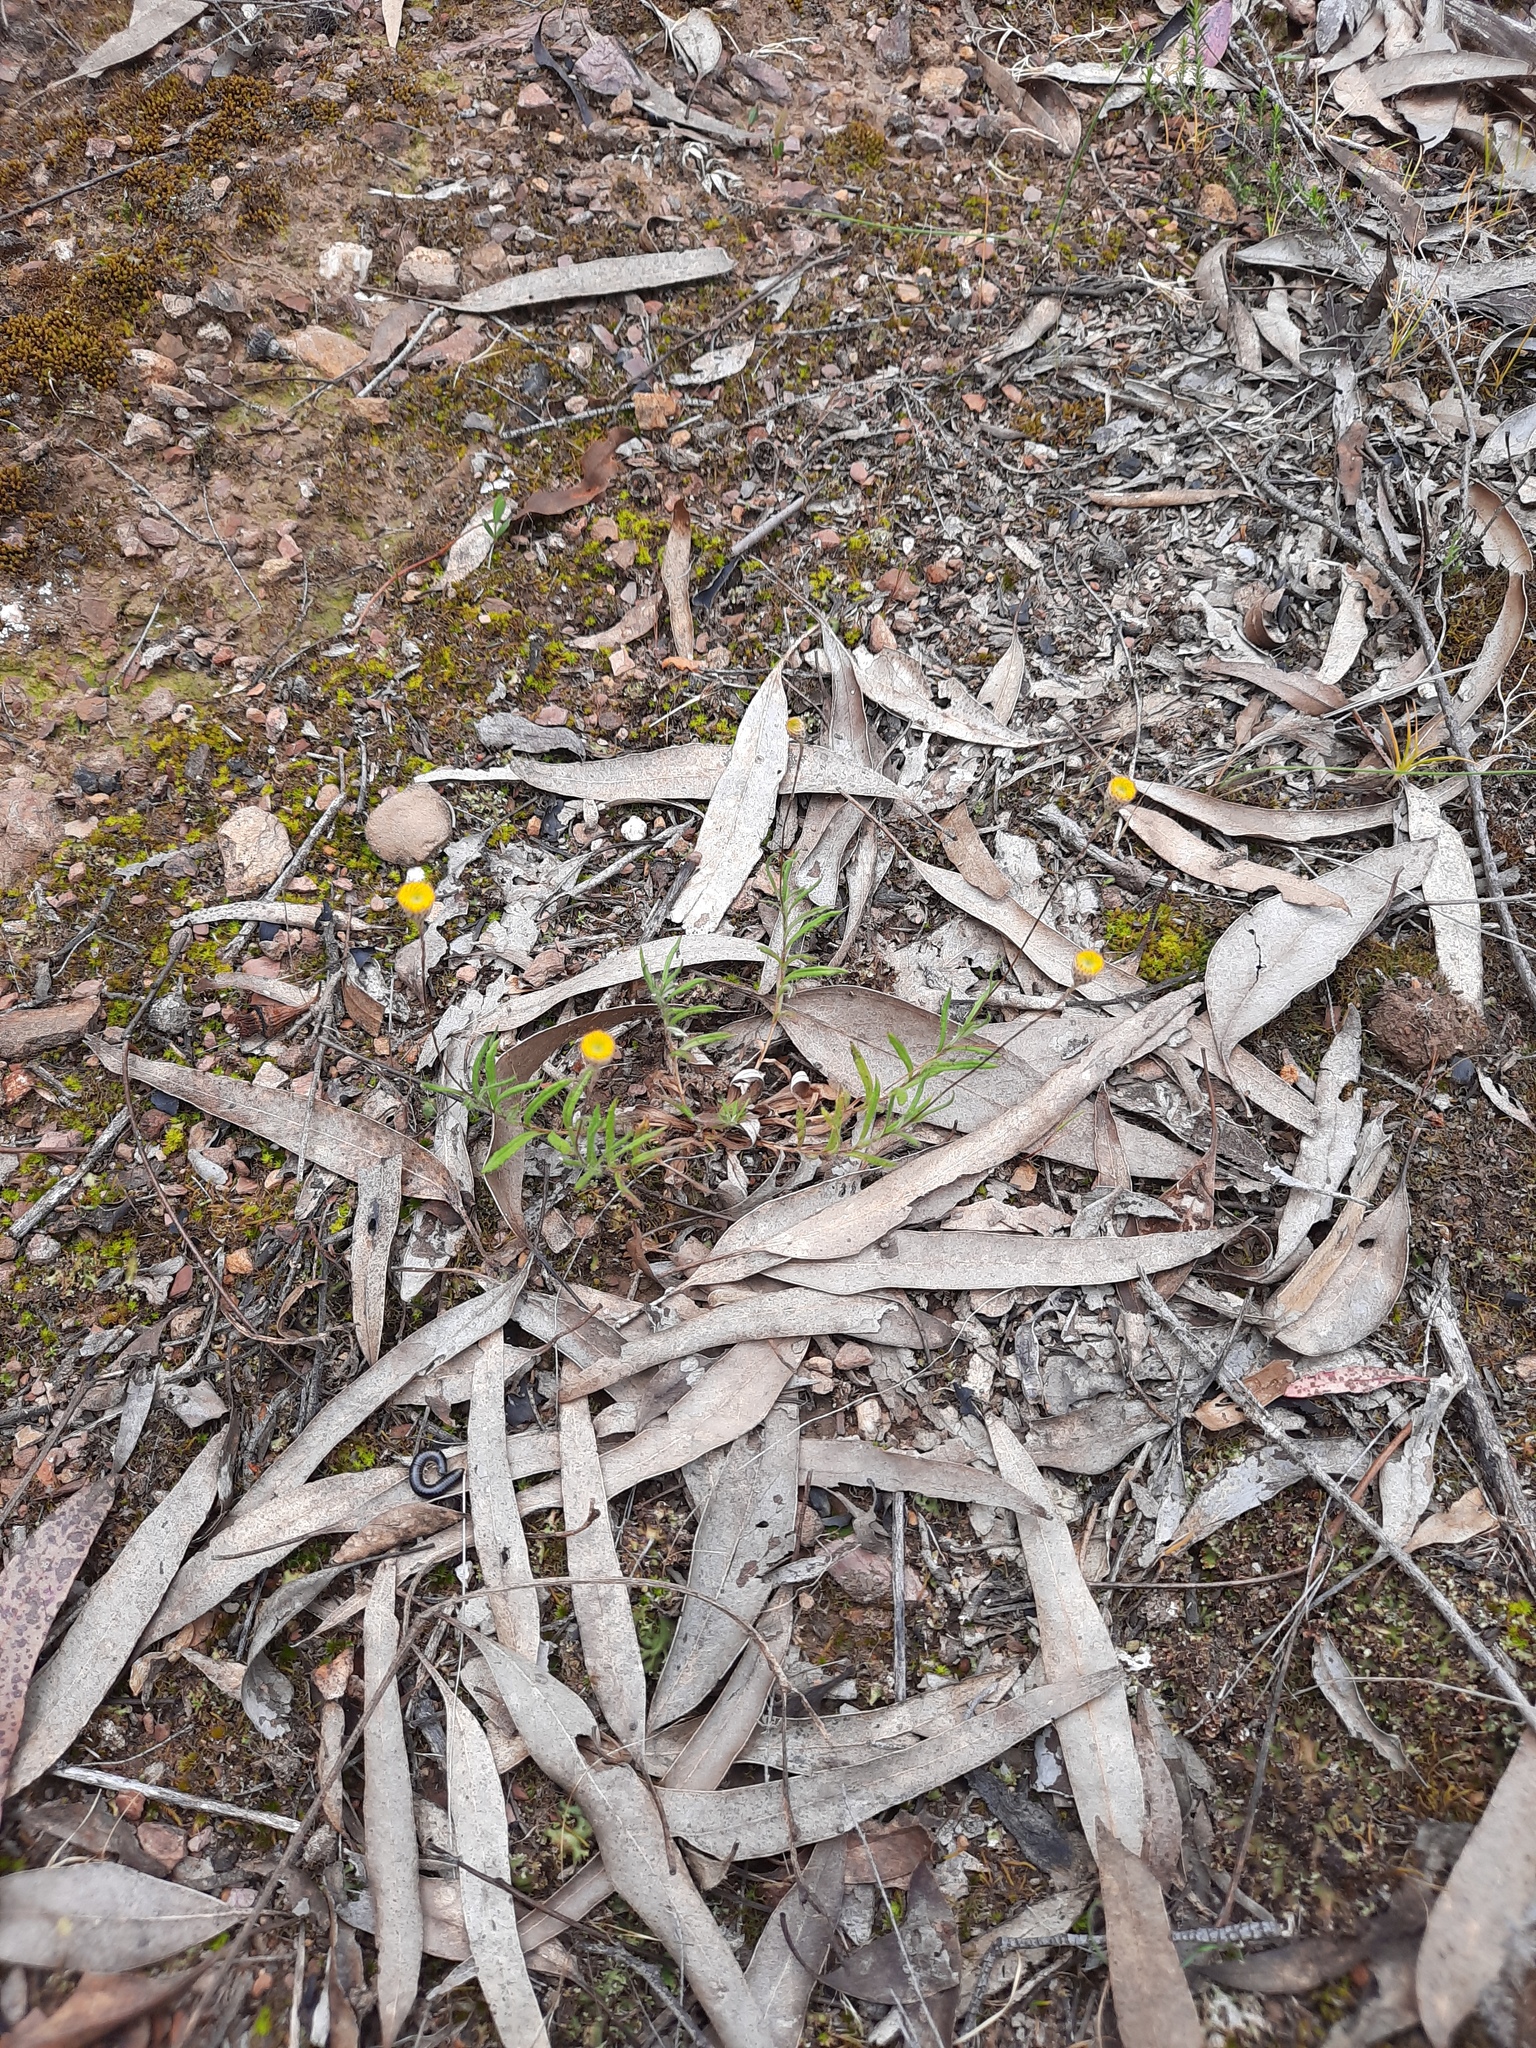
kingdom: Plantae
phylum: Tracheophyta
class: Magnoliopsida
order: Asterales
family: Asteraceae
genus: Leptorhynchos
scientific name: Leptorhynchos squamatus
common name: Scaly-buttons
